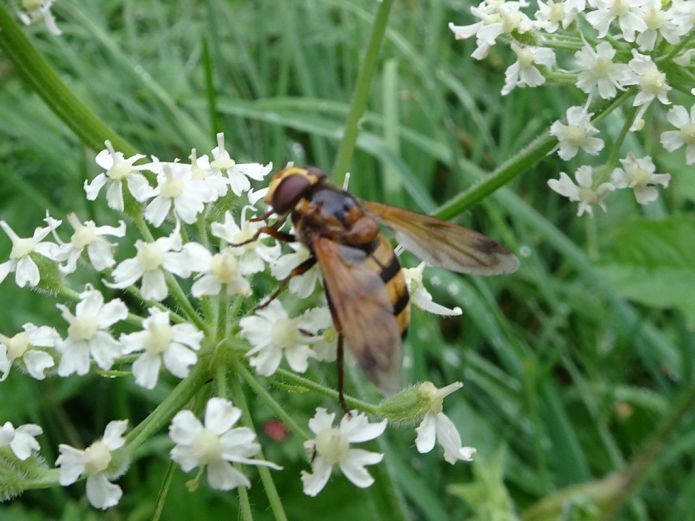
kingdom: Animalia
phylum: Arthropoda
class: Insecta
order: Diptera
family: Syrphidae
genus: Volucella
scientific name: Volucella inanis
